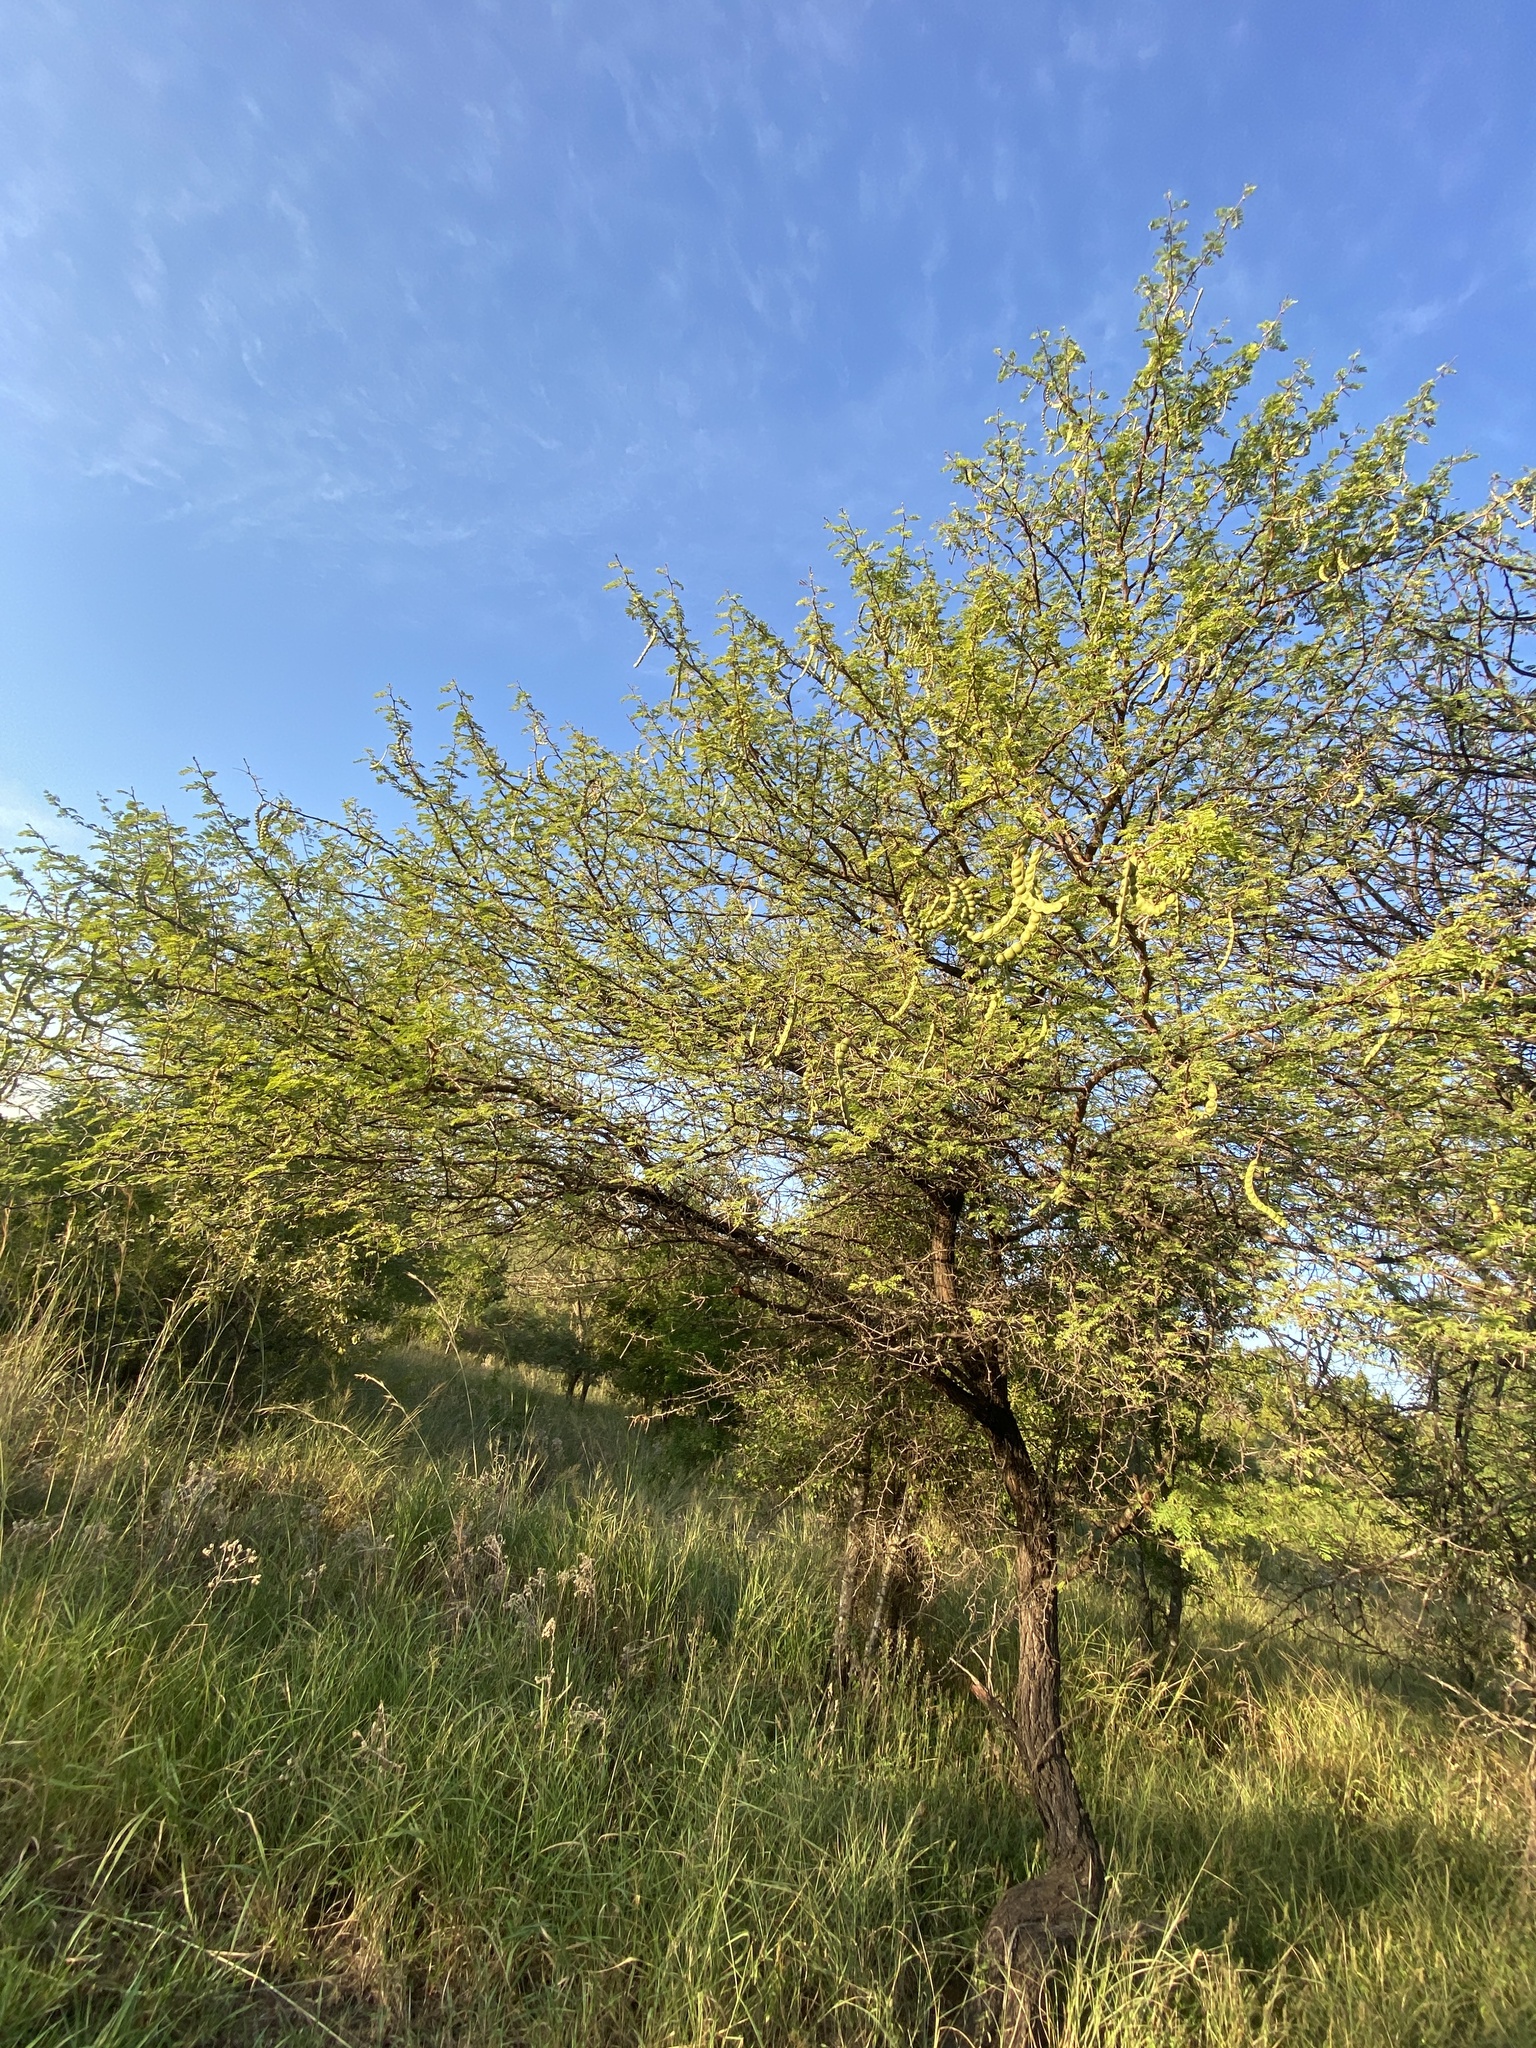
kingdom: Plantae
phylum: Tracheophyta
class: Magnoliopsida
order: Fabales
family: Fabaceae
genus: Vachellia
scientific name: Vachellia nilotica
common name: Arabic gumtree
